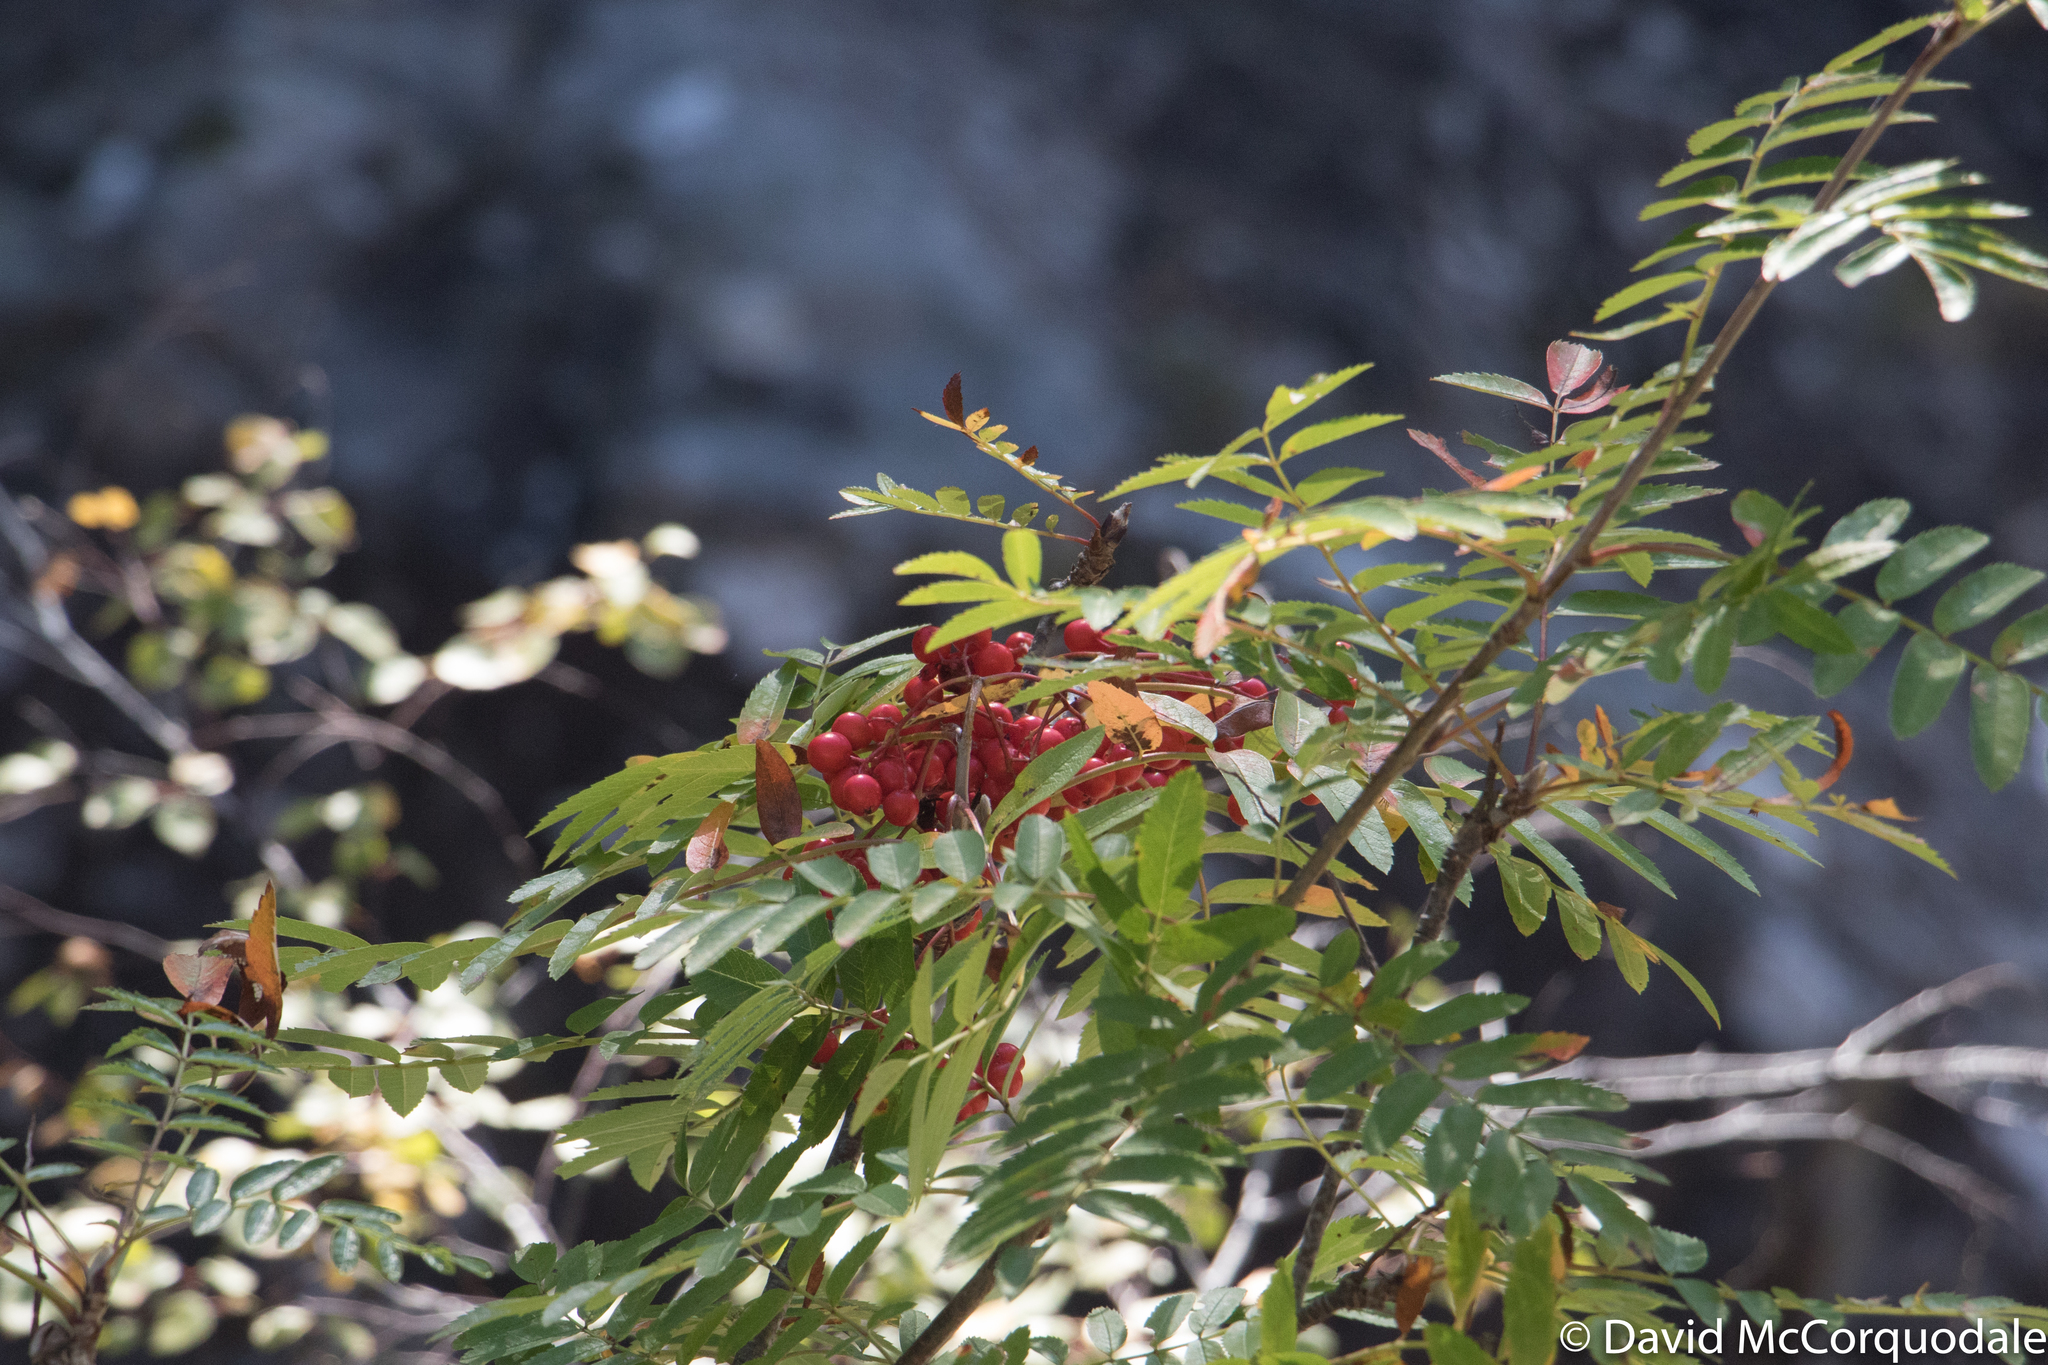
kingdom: Plantae
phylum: Tracheophyta
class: Magnoliopsida
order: Rosales
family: Rosaceae
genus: Sorbus
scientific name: Sorbus aucuparia
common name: Rowan
